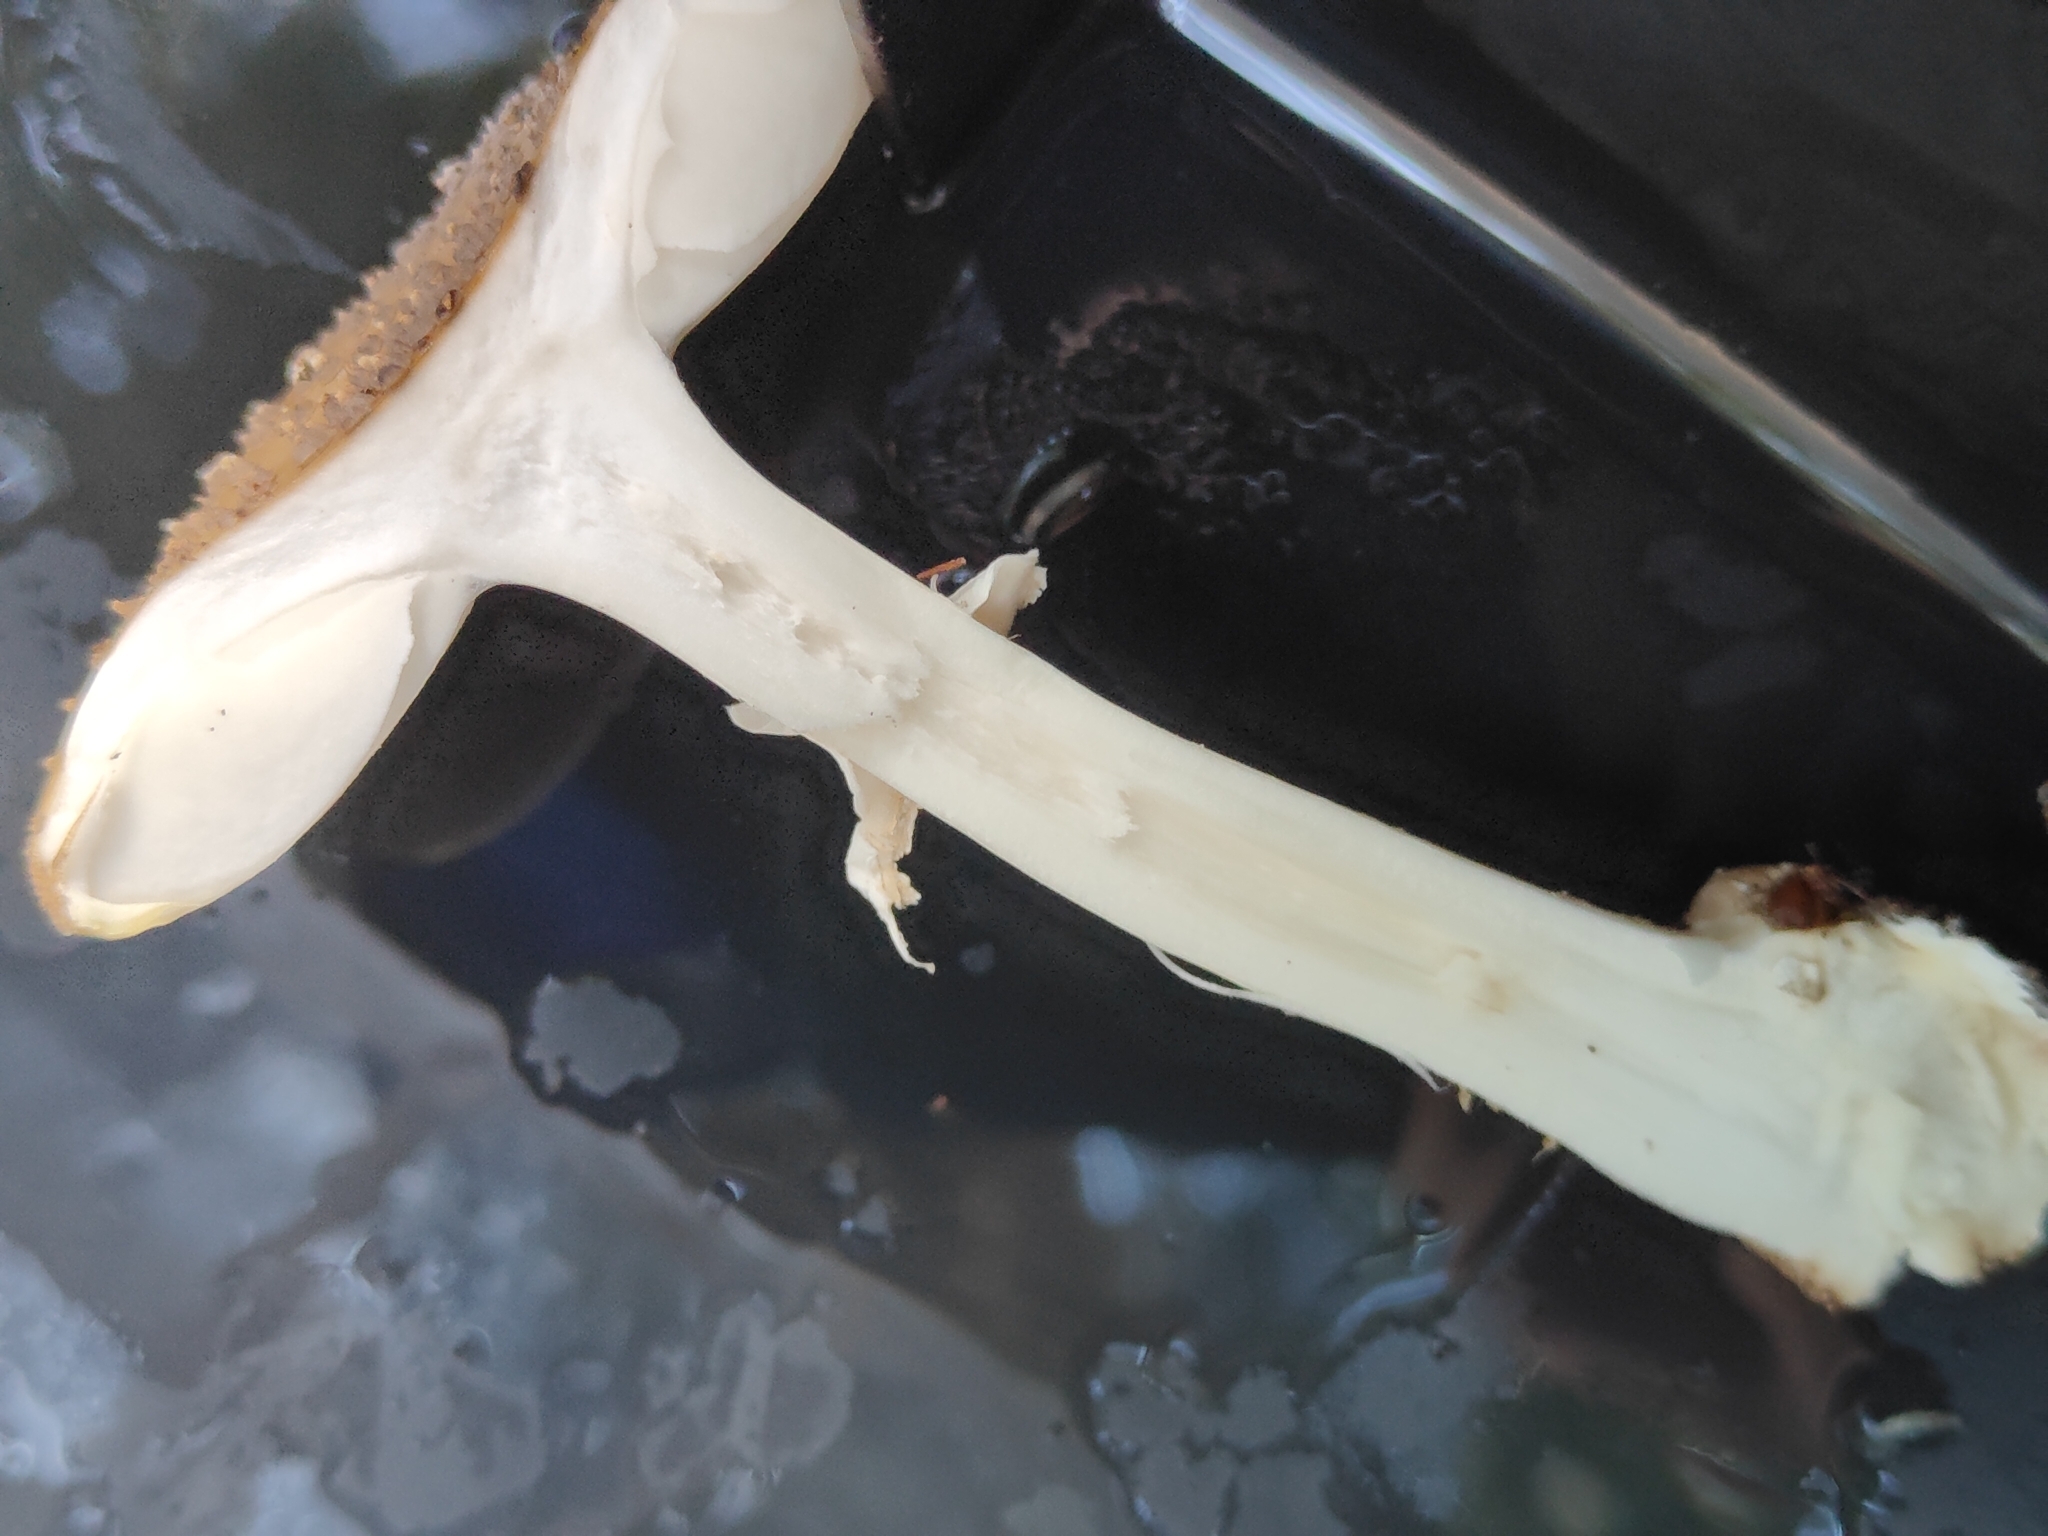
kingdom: Fungi
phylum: Basidiomycota
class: Agaricomycetes
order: Agaricales
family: Amanitaceae
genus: Amanita
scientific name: Amanita australis
